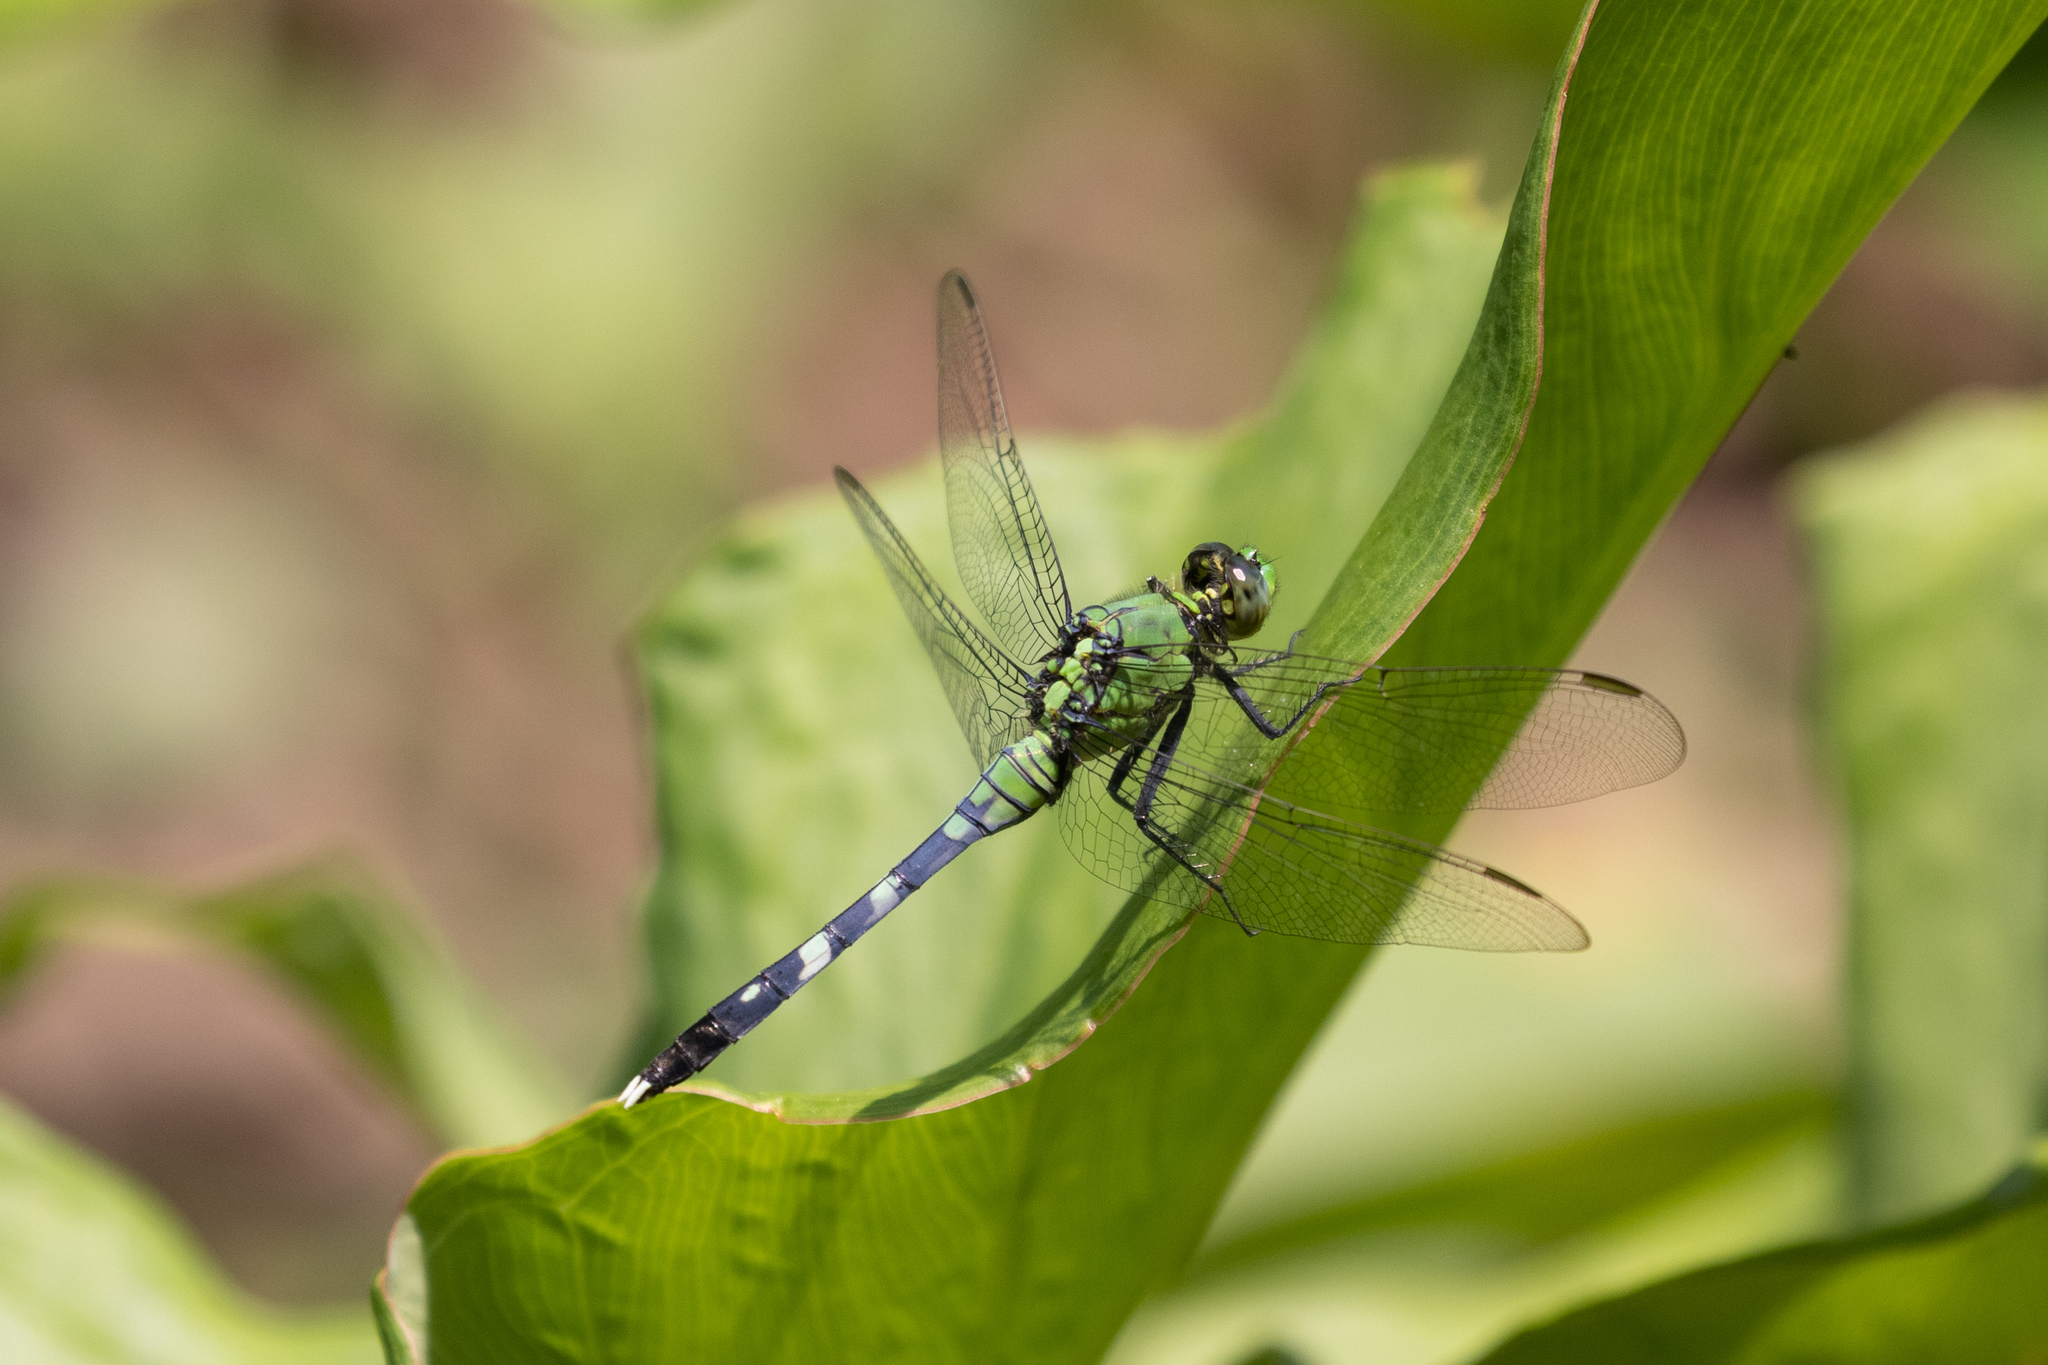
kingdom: Animalia
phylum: Arthropoda
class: Insecta
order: Odonata
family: Libellulidae
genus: Erythemis
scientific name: Erythemis simplicicollis
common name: Eastern pondhawk
